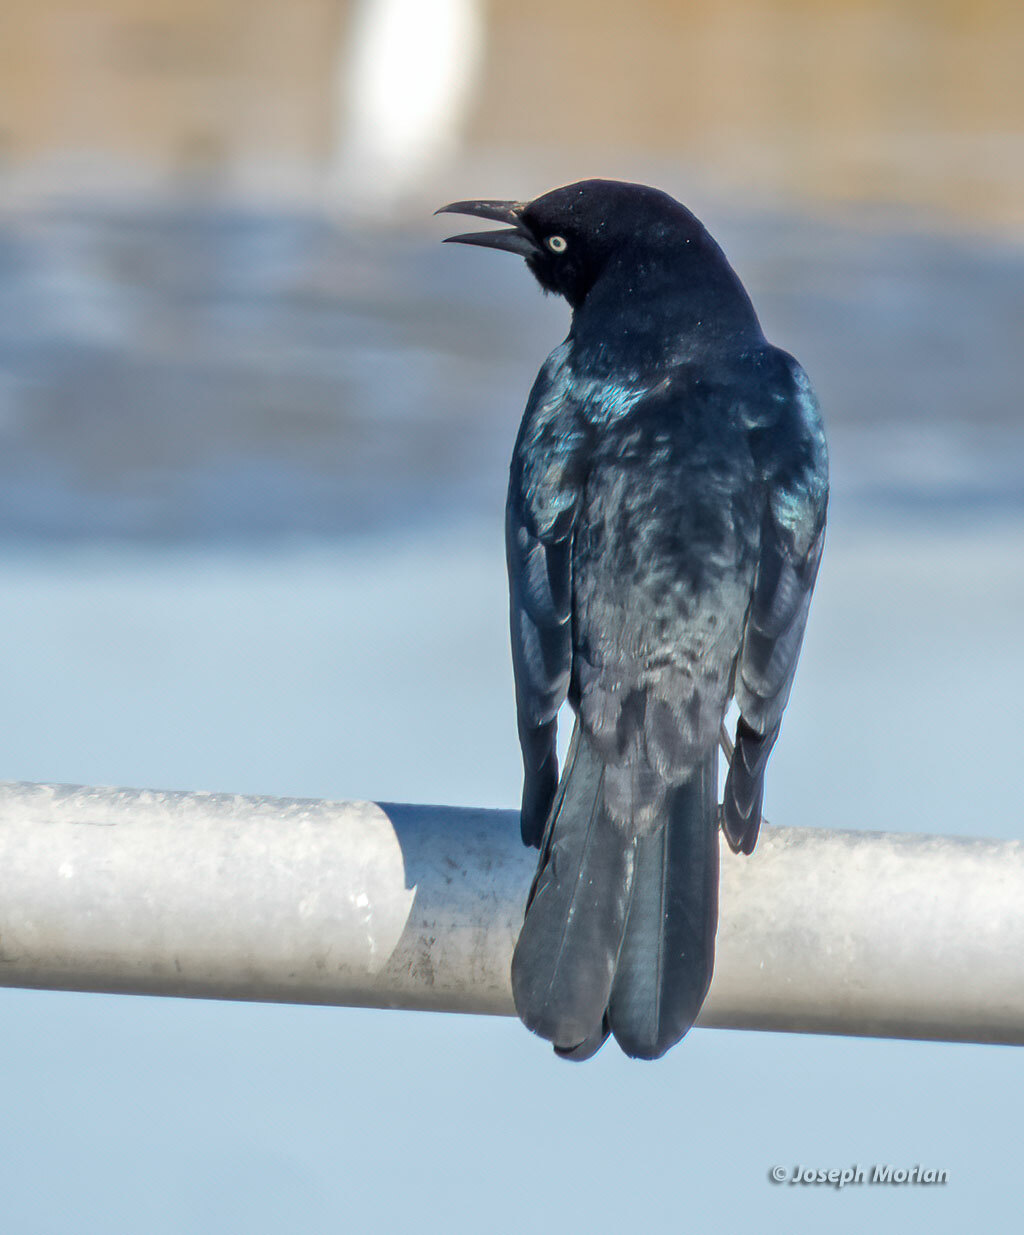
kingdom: Animalia
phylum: Chordata
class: Aves
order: Passeriformes
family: Icteridae
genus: Quiscalus
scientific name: Quiscalus major
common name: Boat-tailed grackle
